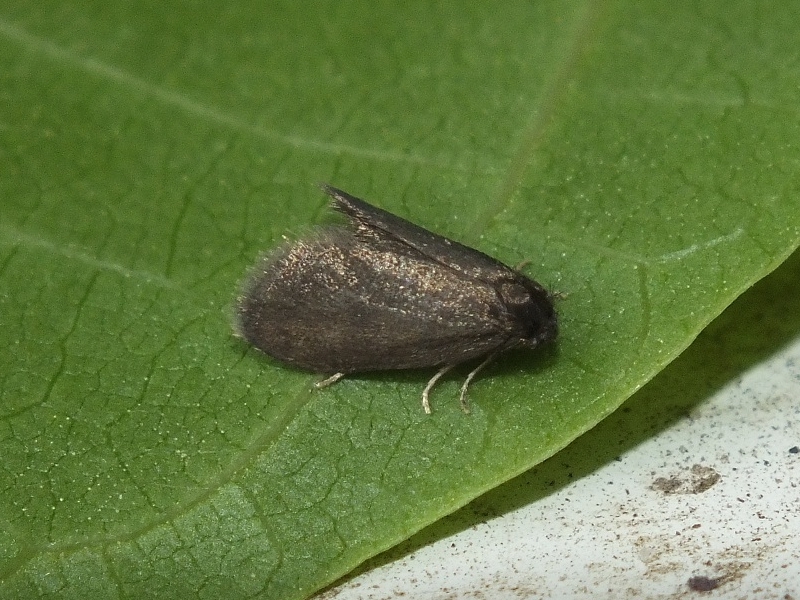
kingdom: Animalia
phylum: Arthropoda
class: Insecta
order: Lepidoptera
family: Psychidae
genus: Proutia
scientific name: Proutia betulina
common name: Birch sweep
